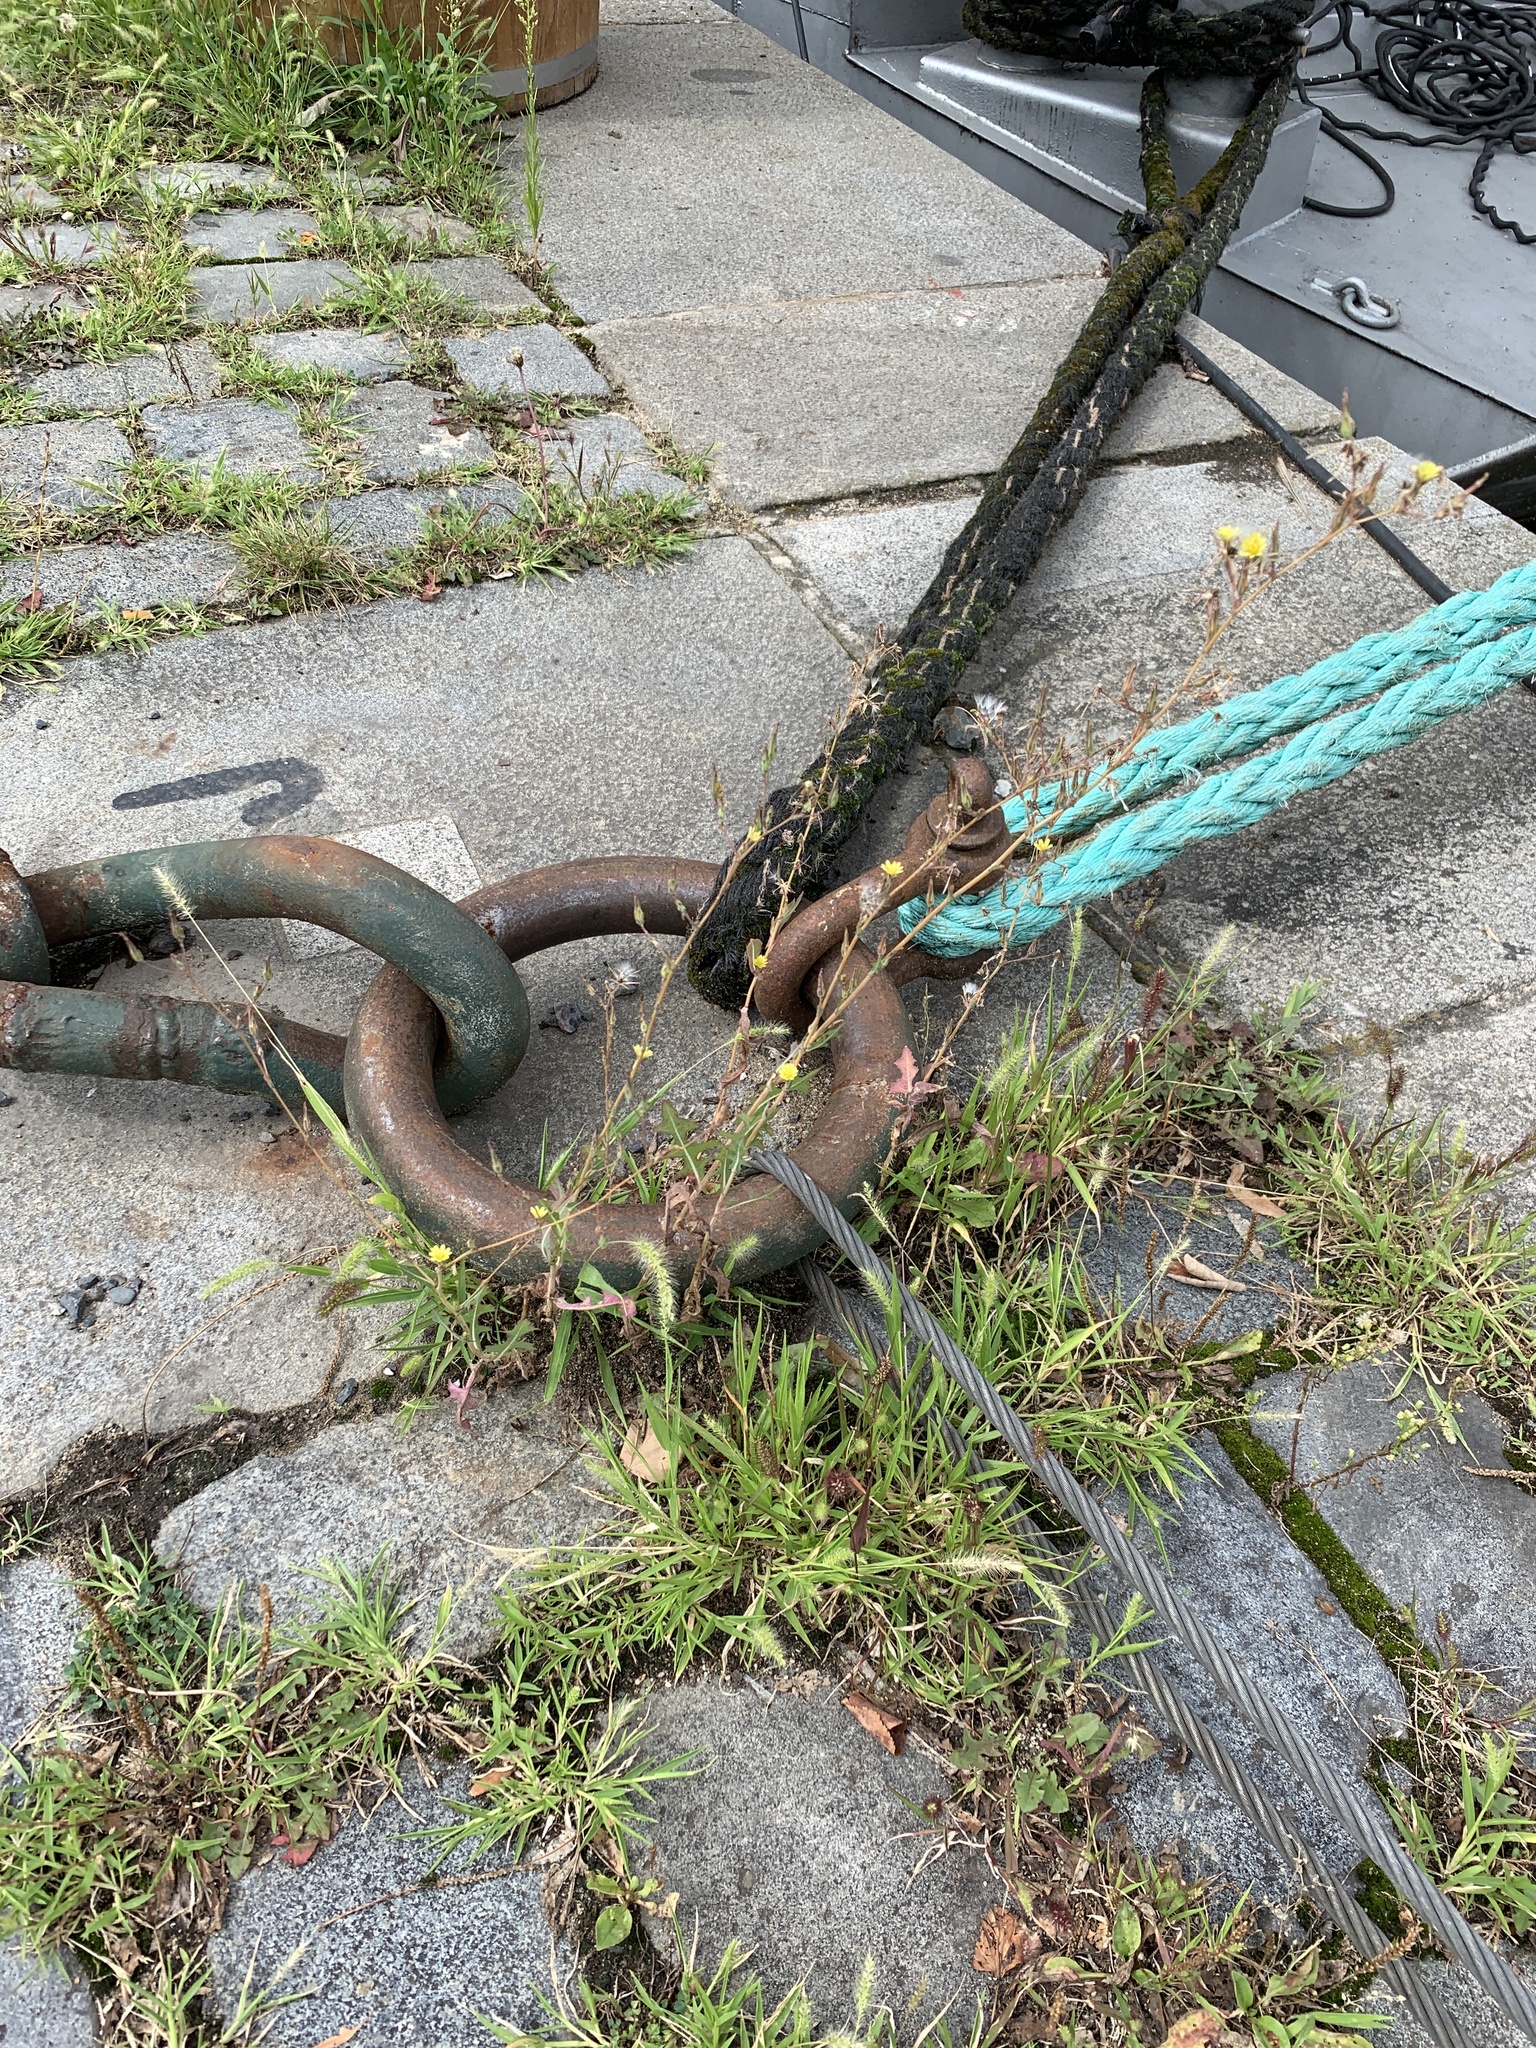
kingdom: Plantae
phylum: Tracheophyta
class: Magnoliopsida
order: Asterales
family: Asteraceae
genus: Lactuca
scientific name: Lactuca serriola
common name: Prickly lettuce
